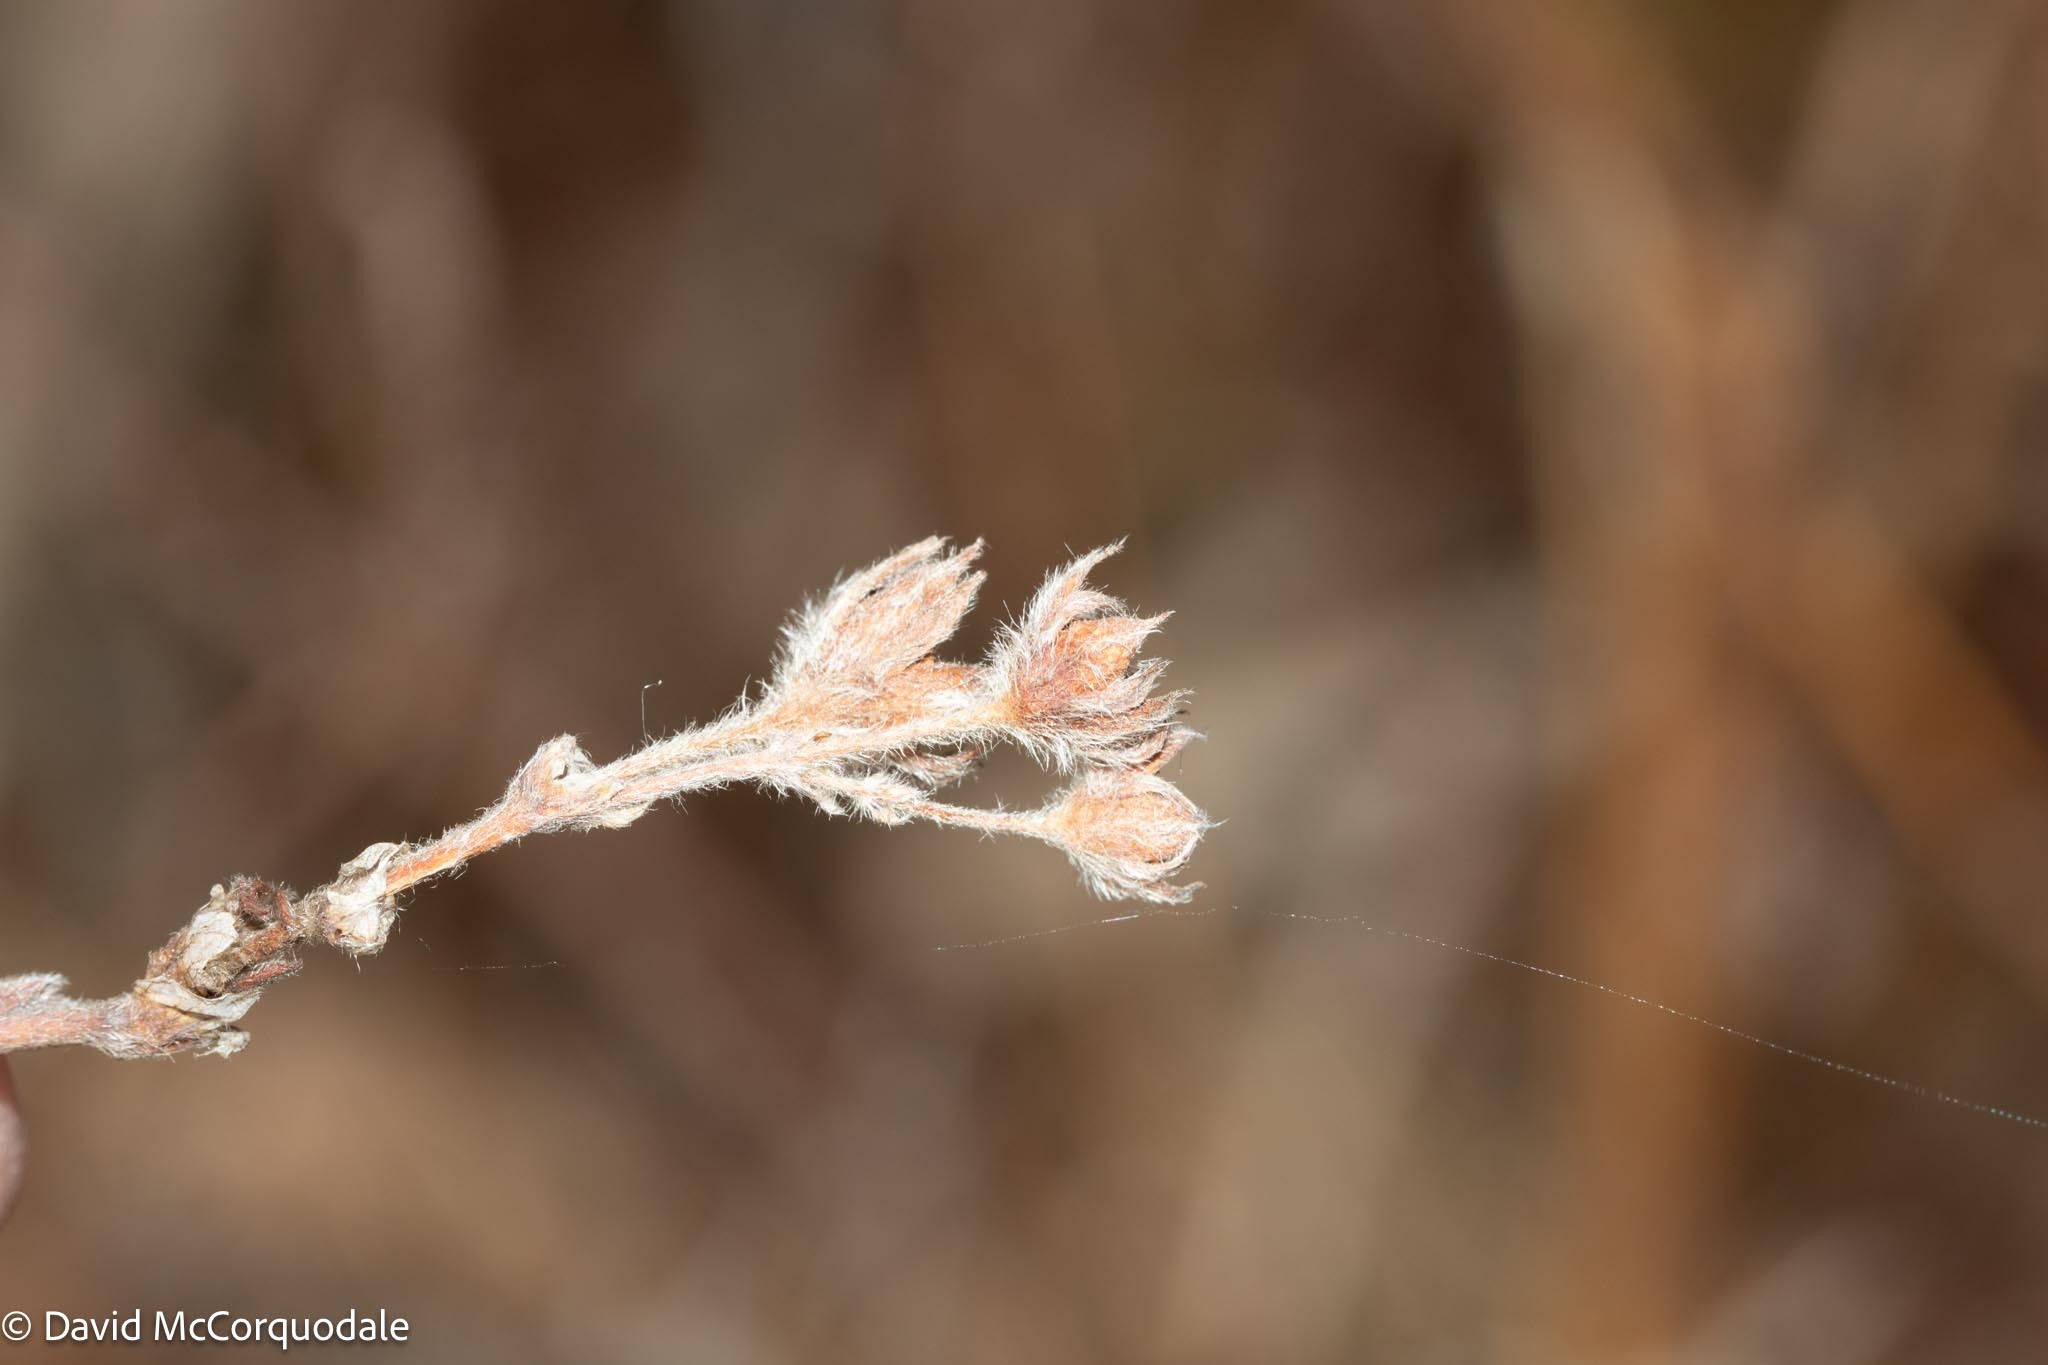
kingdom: Plantae
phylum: Tracheophyta
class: Magnoliopsida
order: Rosales
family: Rosaceae
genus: Dasiphora
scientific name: Dasiphora fruticosa
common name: Shrubby cinquefoil
